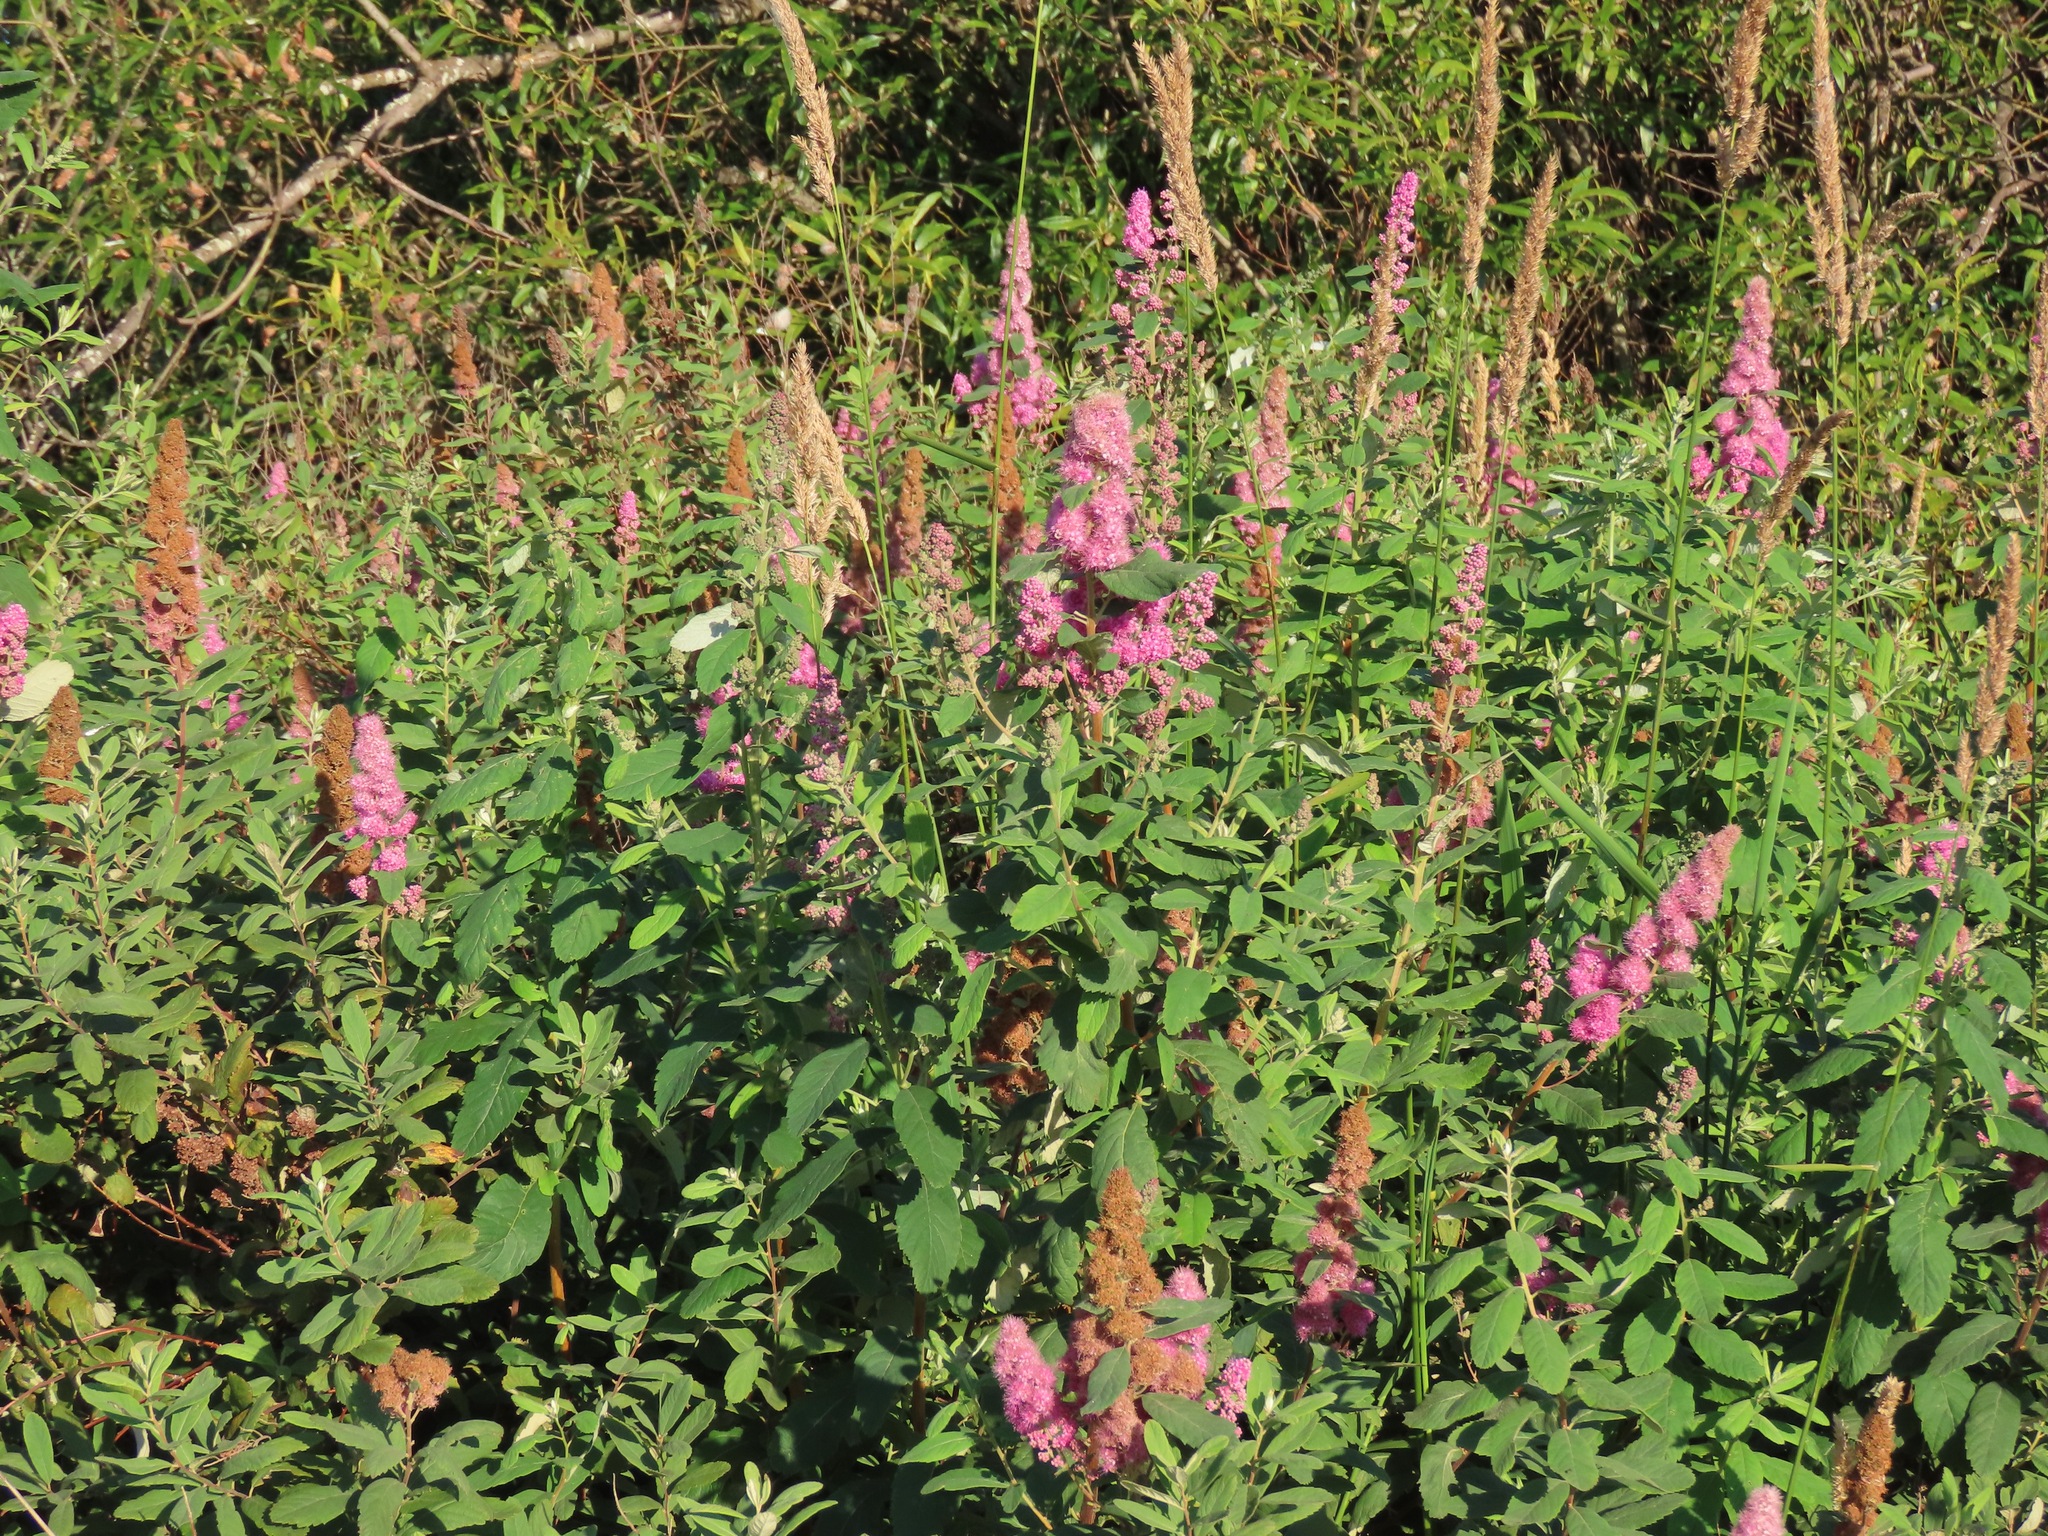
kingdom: Plantae
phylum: Tracheophyta
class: Magnoliopsida
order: Rosales
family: Rosaceae
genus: Spiraea
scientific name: Spiraea douglasii
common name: Steeplebush
